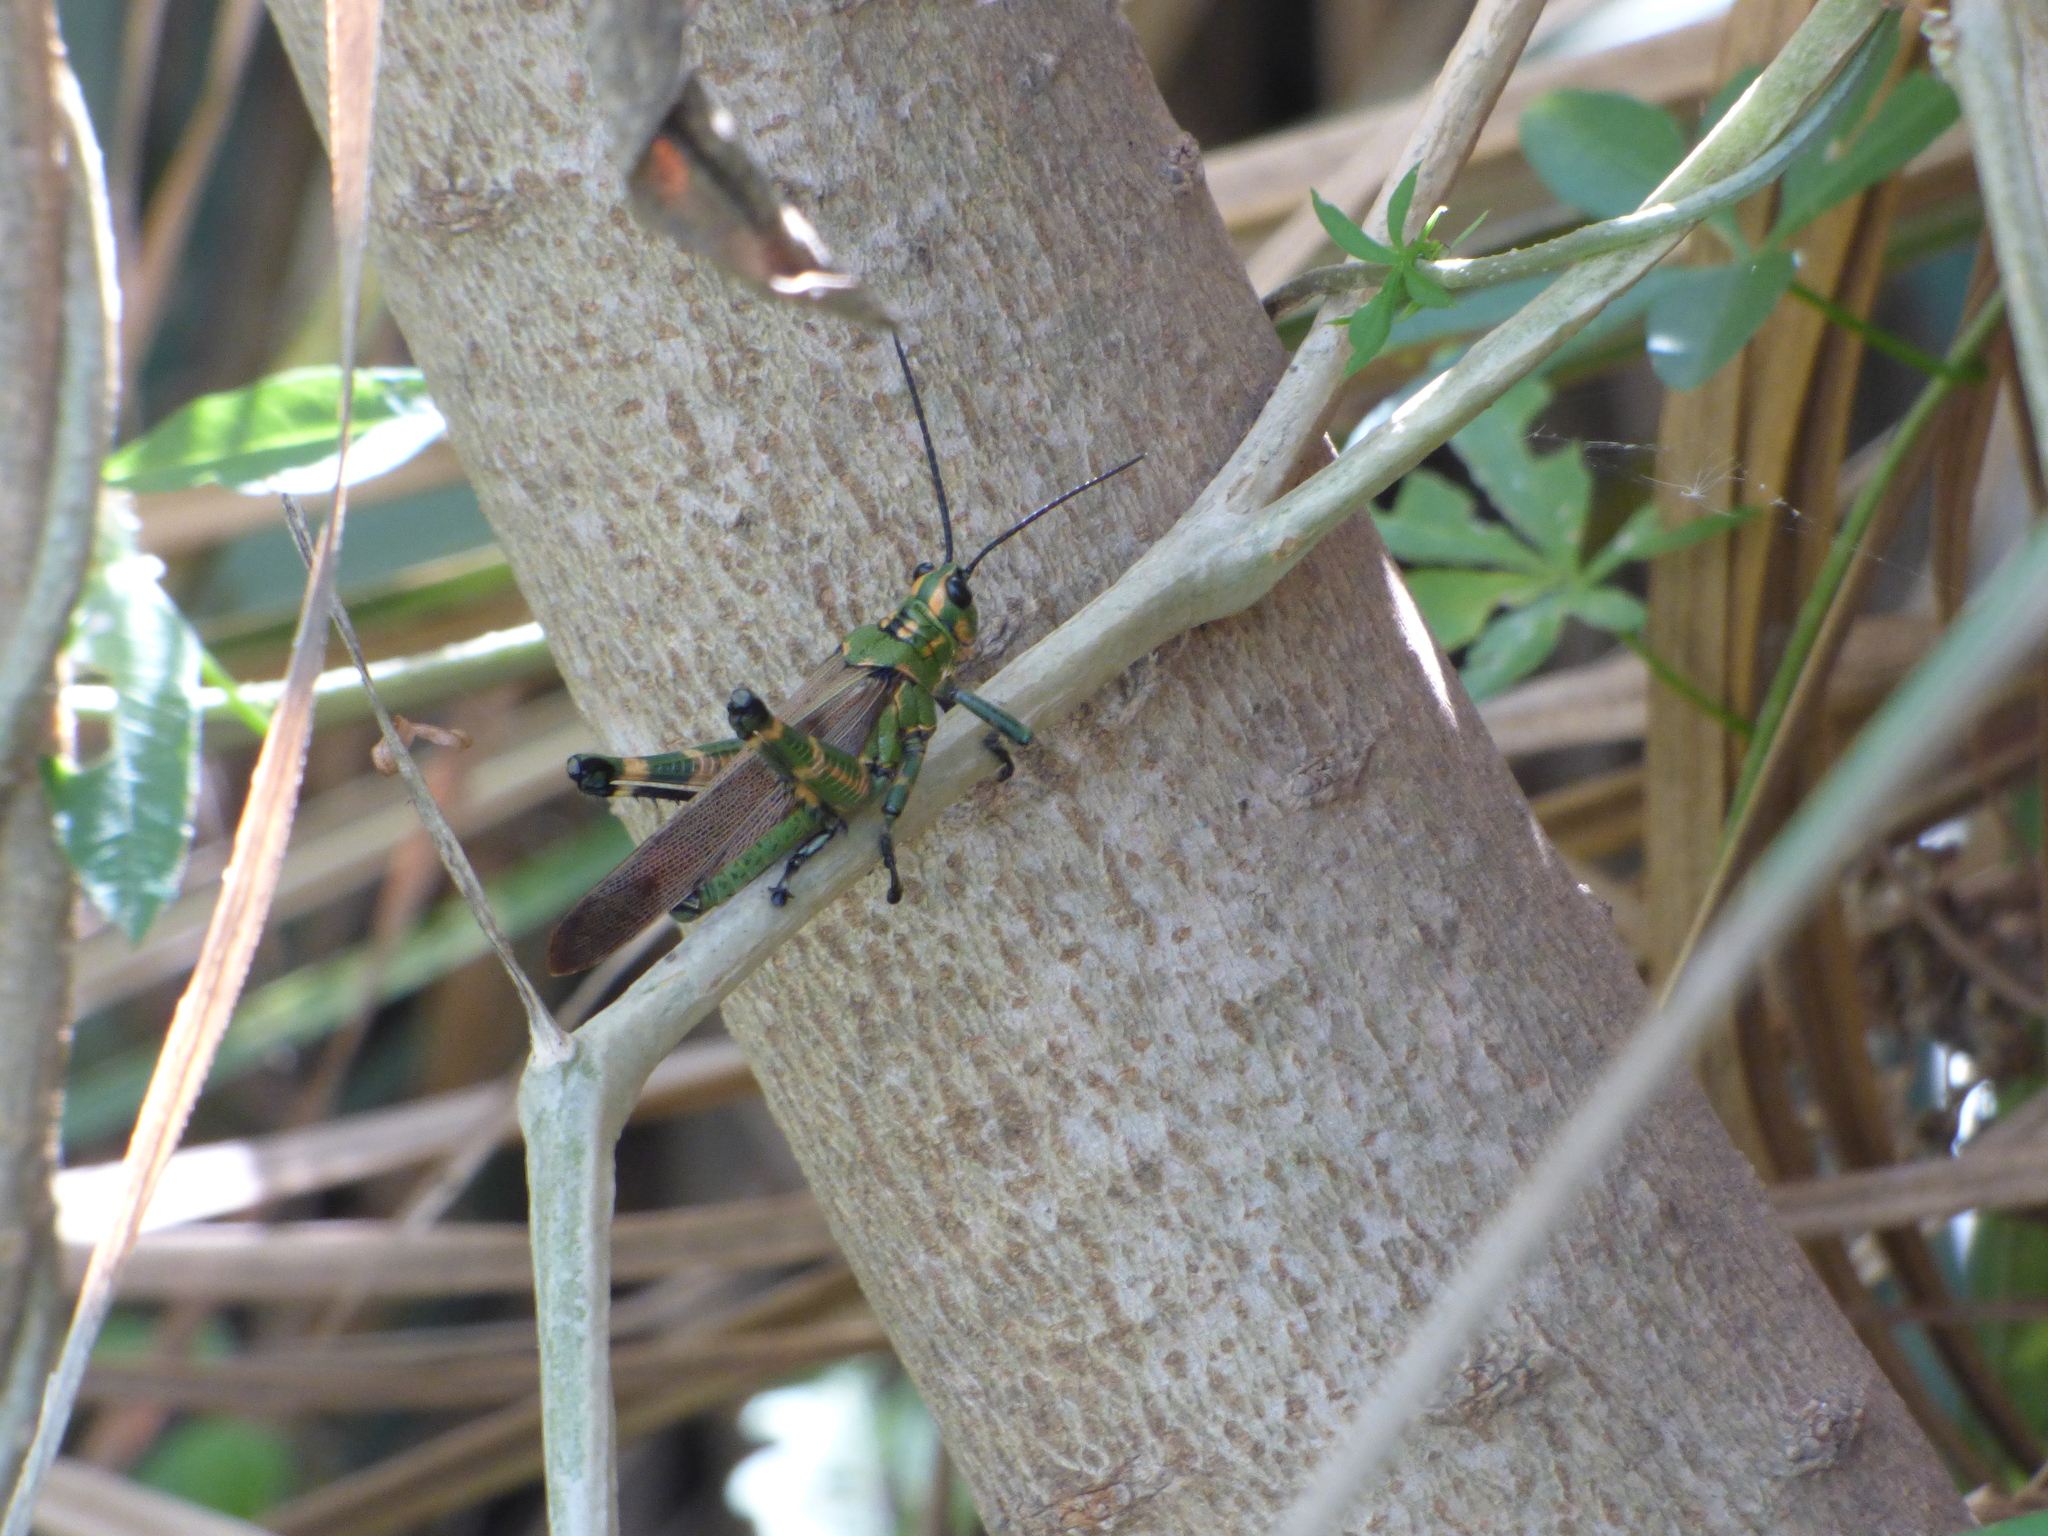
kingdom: Animalia
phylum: Arthropoda
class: Insecta
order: Orthoptera
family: Romaleidae
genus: Chromacris
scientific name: Chromacris speciosa
